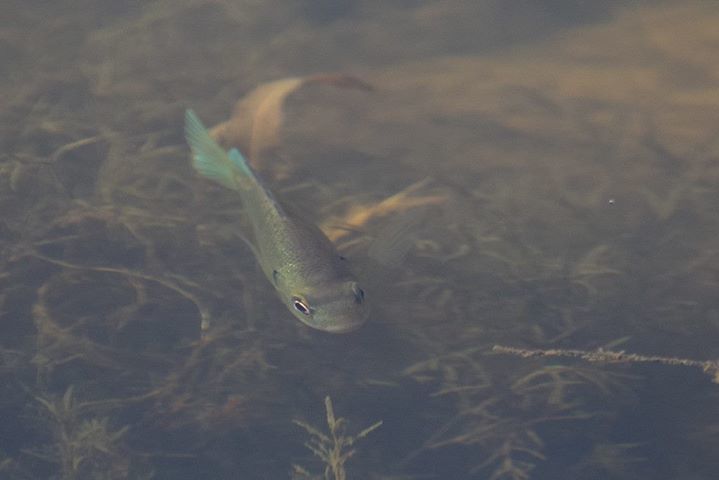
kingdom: Animalia
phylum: Chordata
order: Perciformes
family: Centrarchidae
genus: Lepomis
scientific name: Lepomis macrochirus
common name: Bluegill
